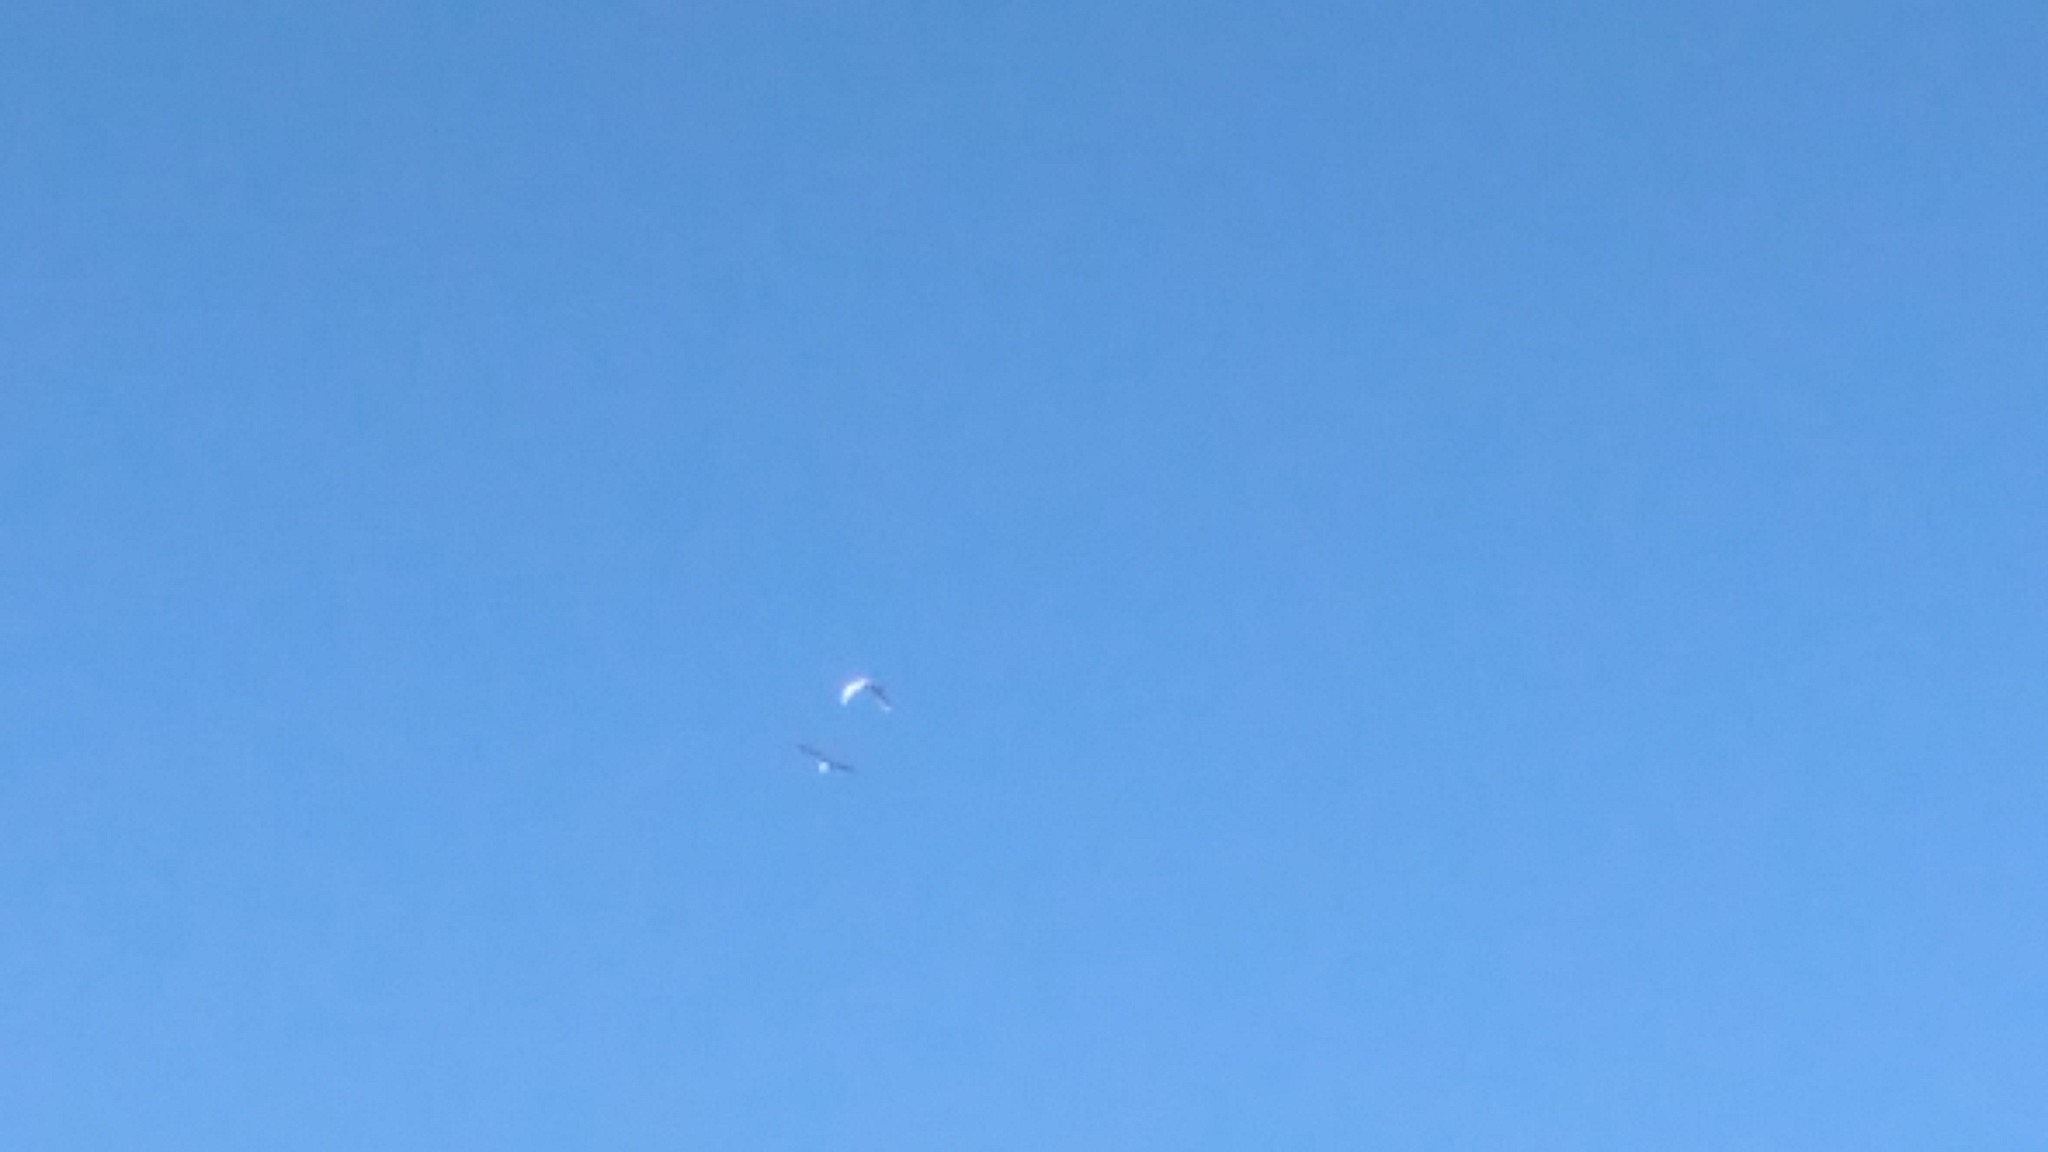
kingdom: Animalia
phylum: Chordata
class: Aves
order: Pelecaniformes
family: Ardeidae
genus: Egretta
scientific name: Egretta thula
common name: Snowy egret
